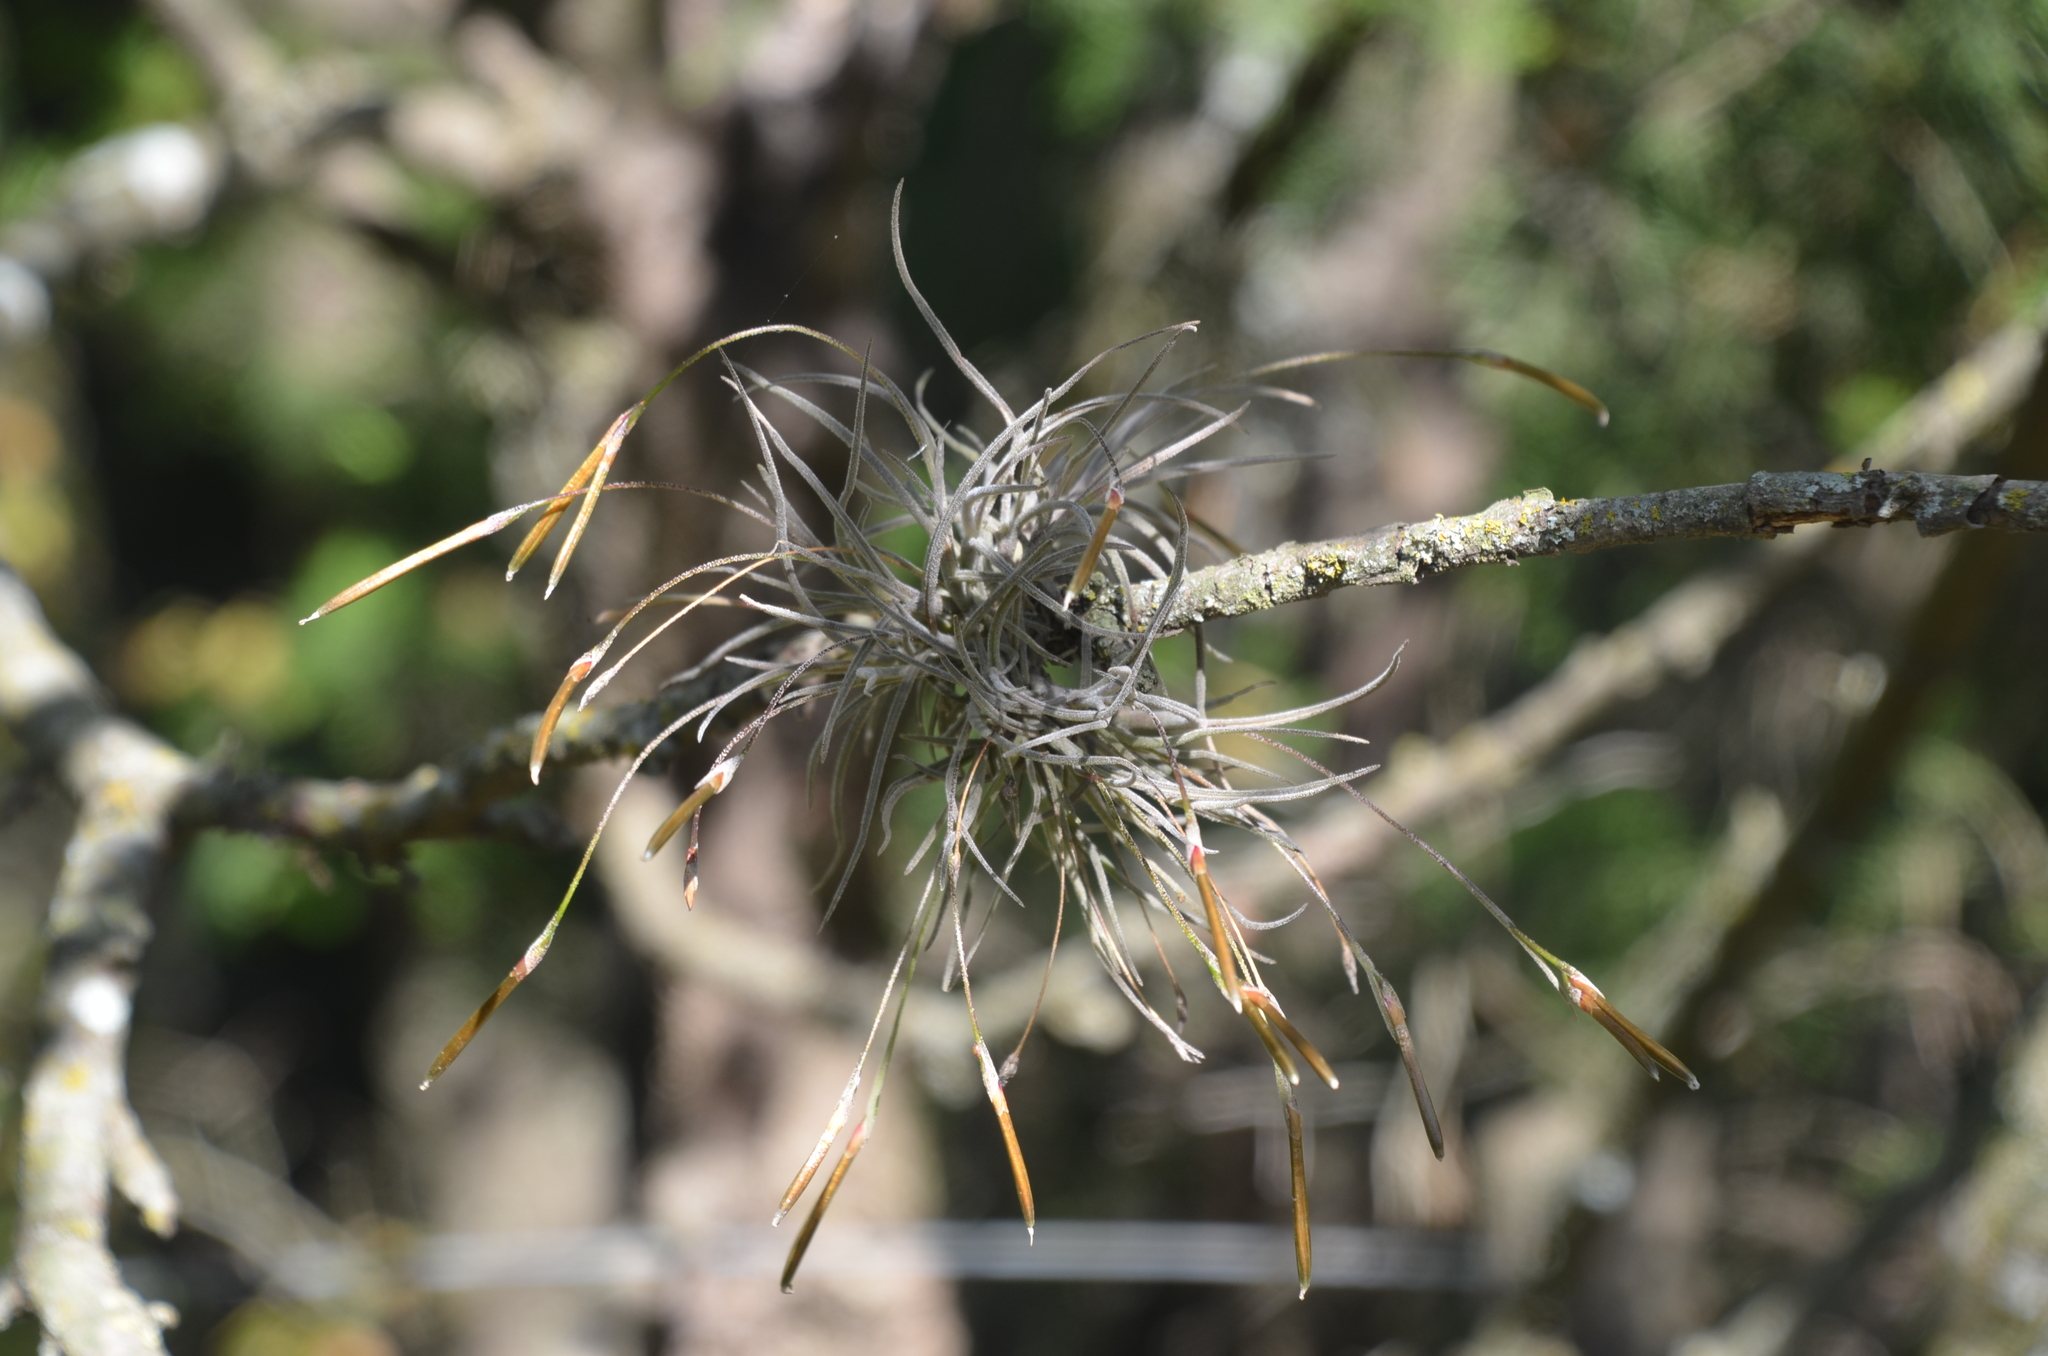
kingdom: Plantae
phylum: Tracheophyta
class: Liliopsida
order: Poales
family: Bromeliaceae
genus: Tillandsia
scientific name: Tillandsia recurvata
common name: Small ballmoss
